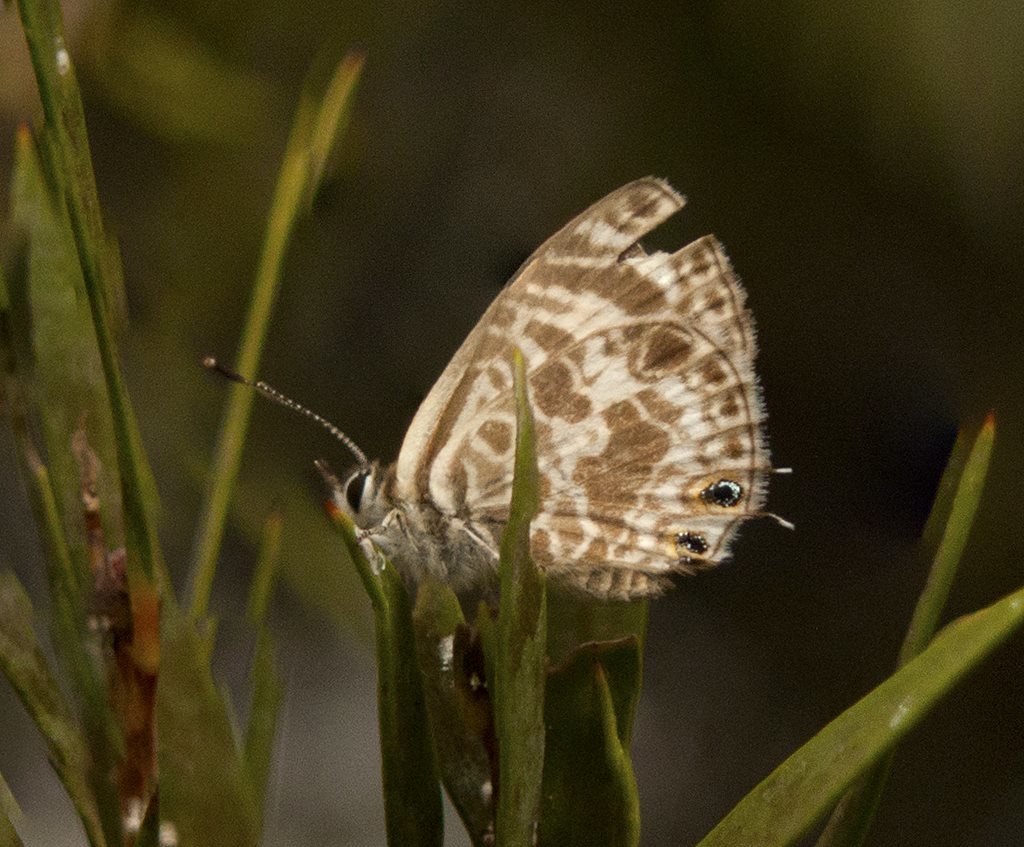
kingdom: Animalia
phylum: Arthropoda
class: Insecta
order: Lepidoptera
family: Lycaenidae
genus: Leptotes
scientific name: Leptotes plinius
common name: Zebra blue
